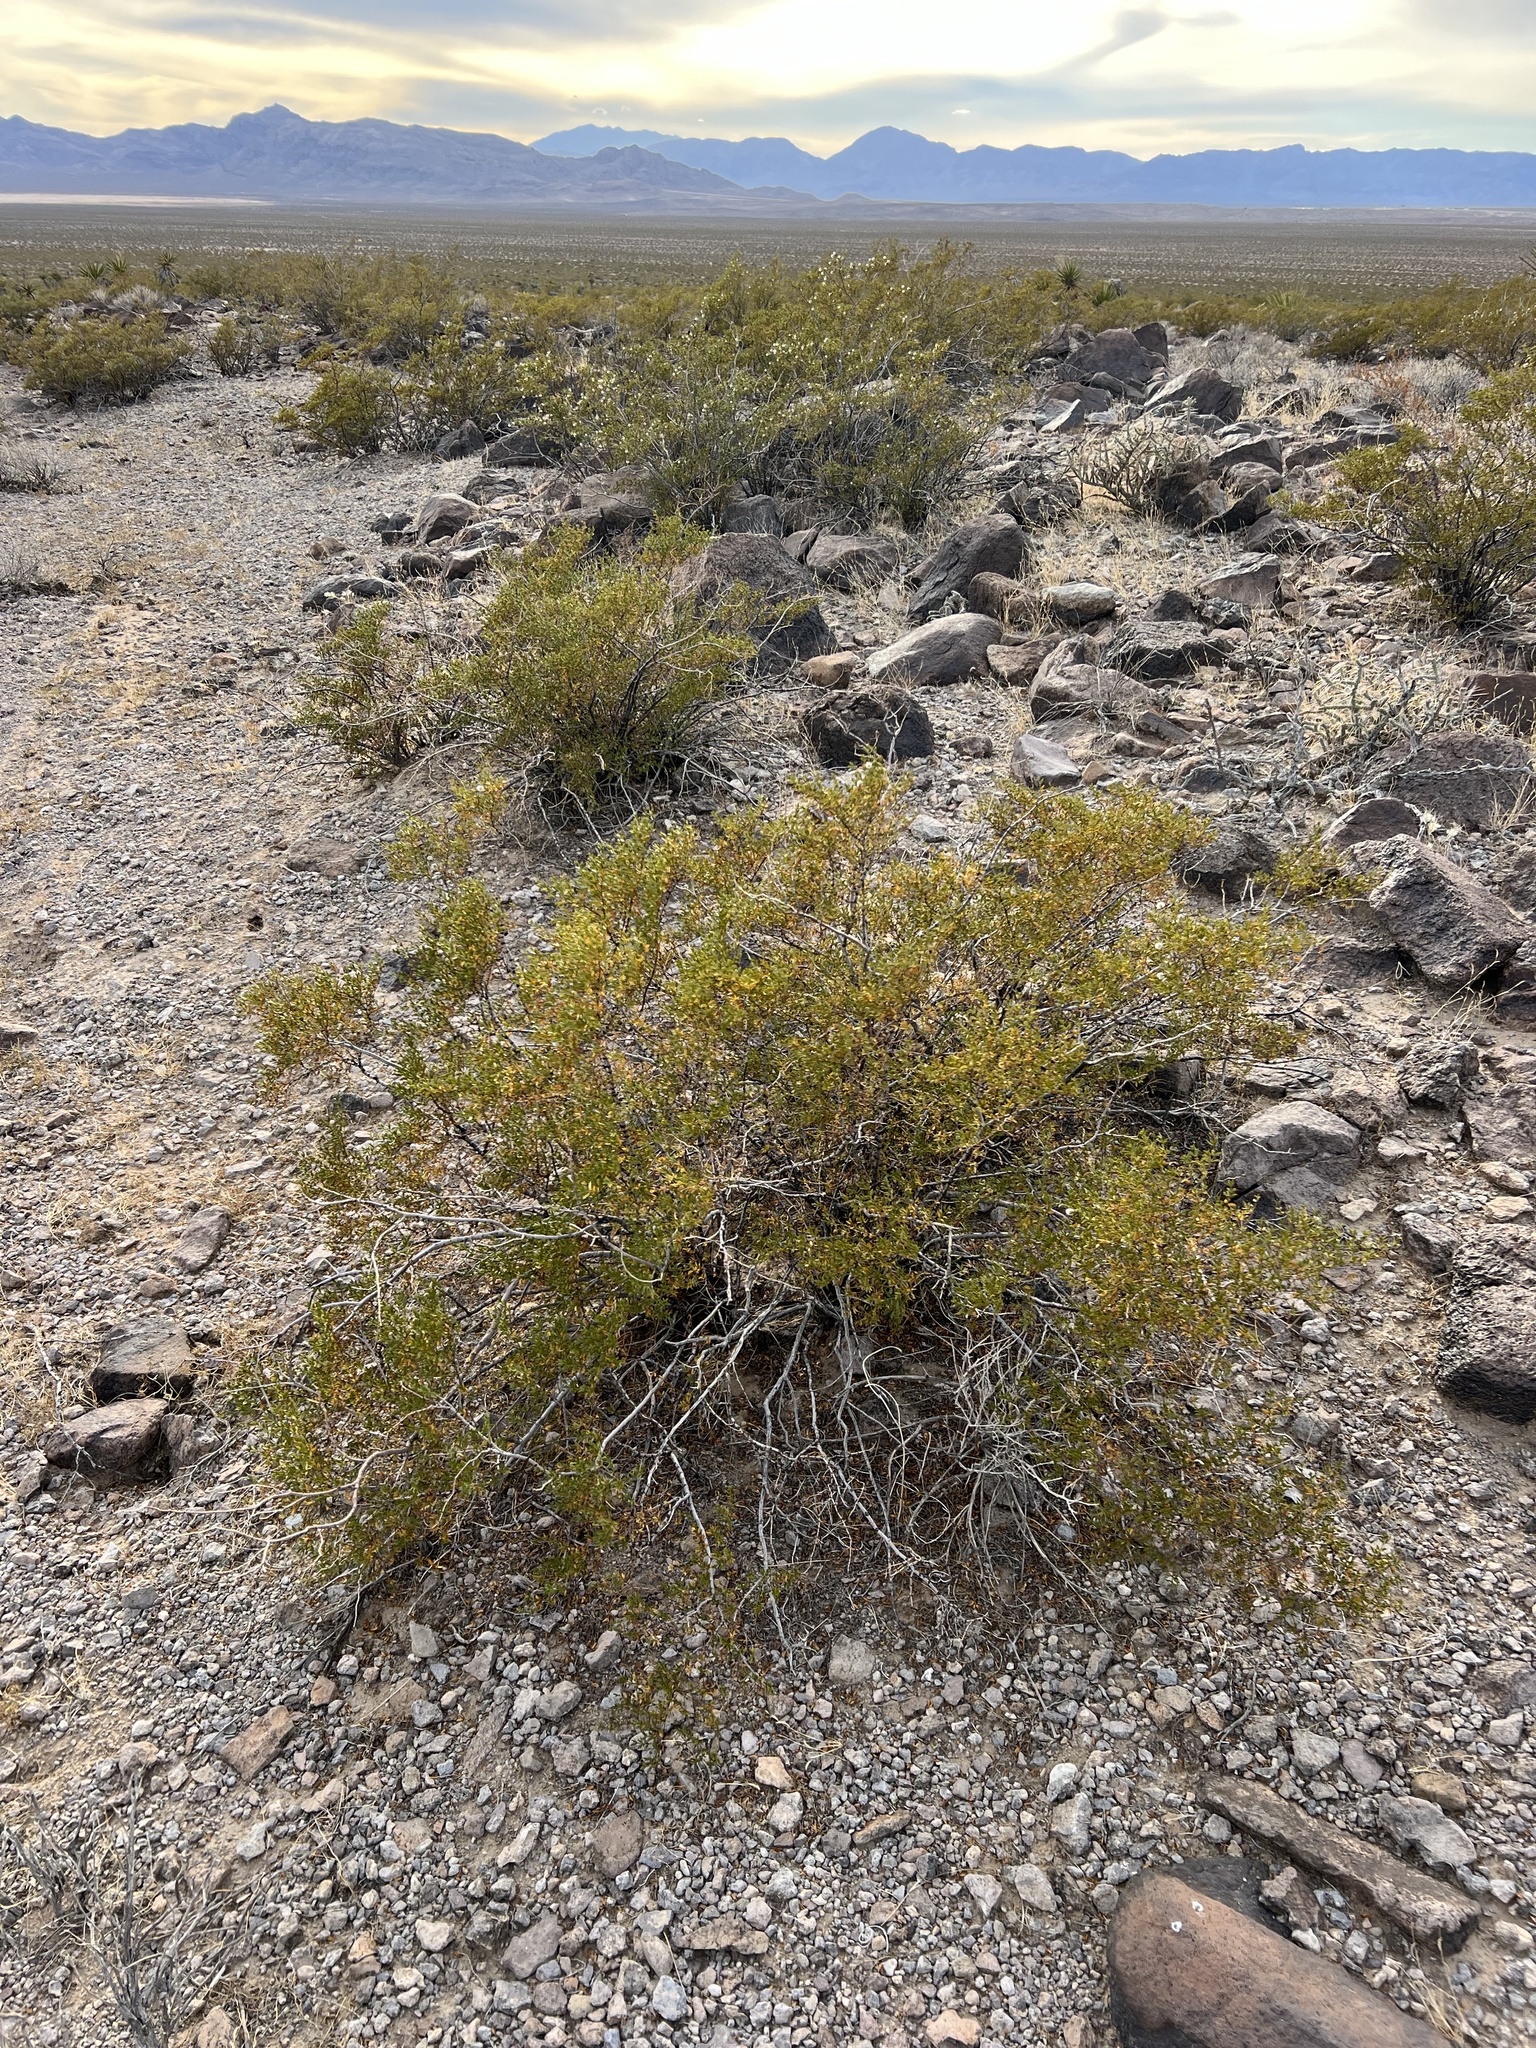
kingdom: Plantae
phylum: Tracheophyta
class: Magnoliopsida
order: Zygophyllales
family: Zygophyllaceae
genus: Larrea
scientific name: Larrea tridentata
